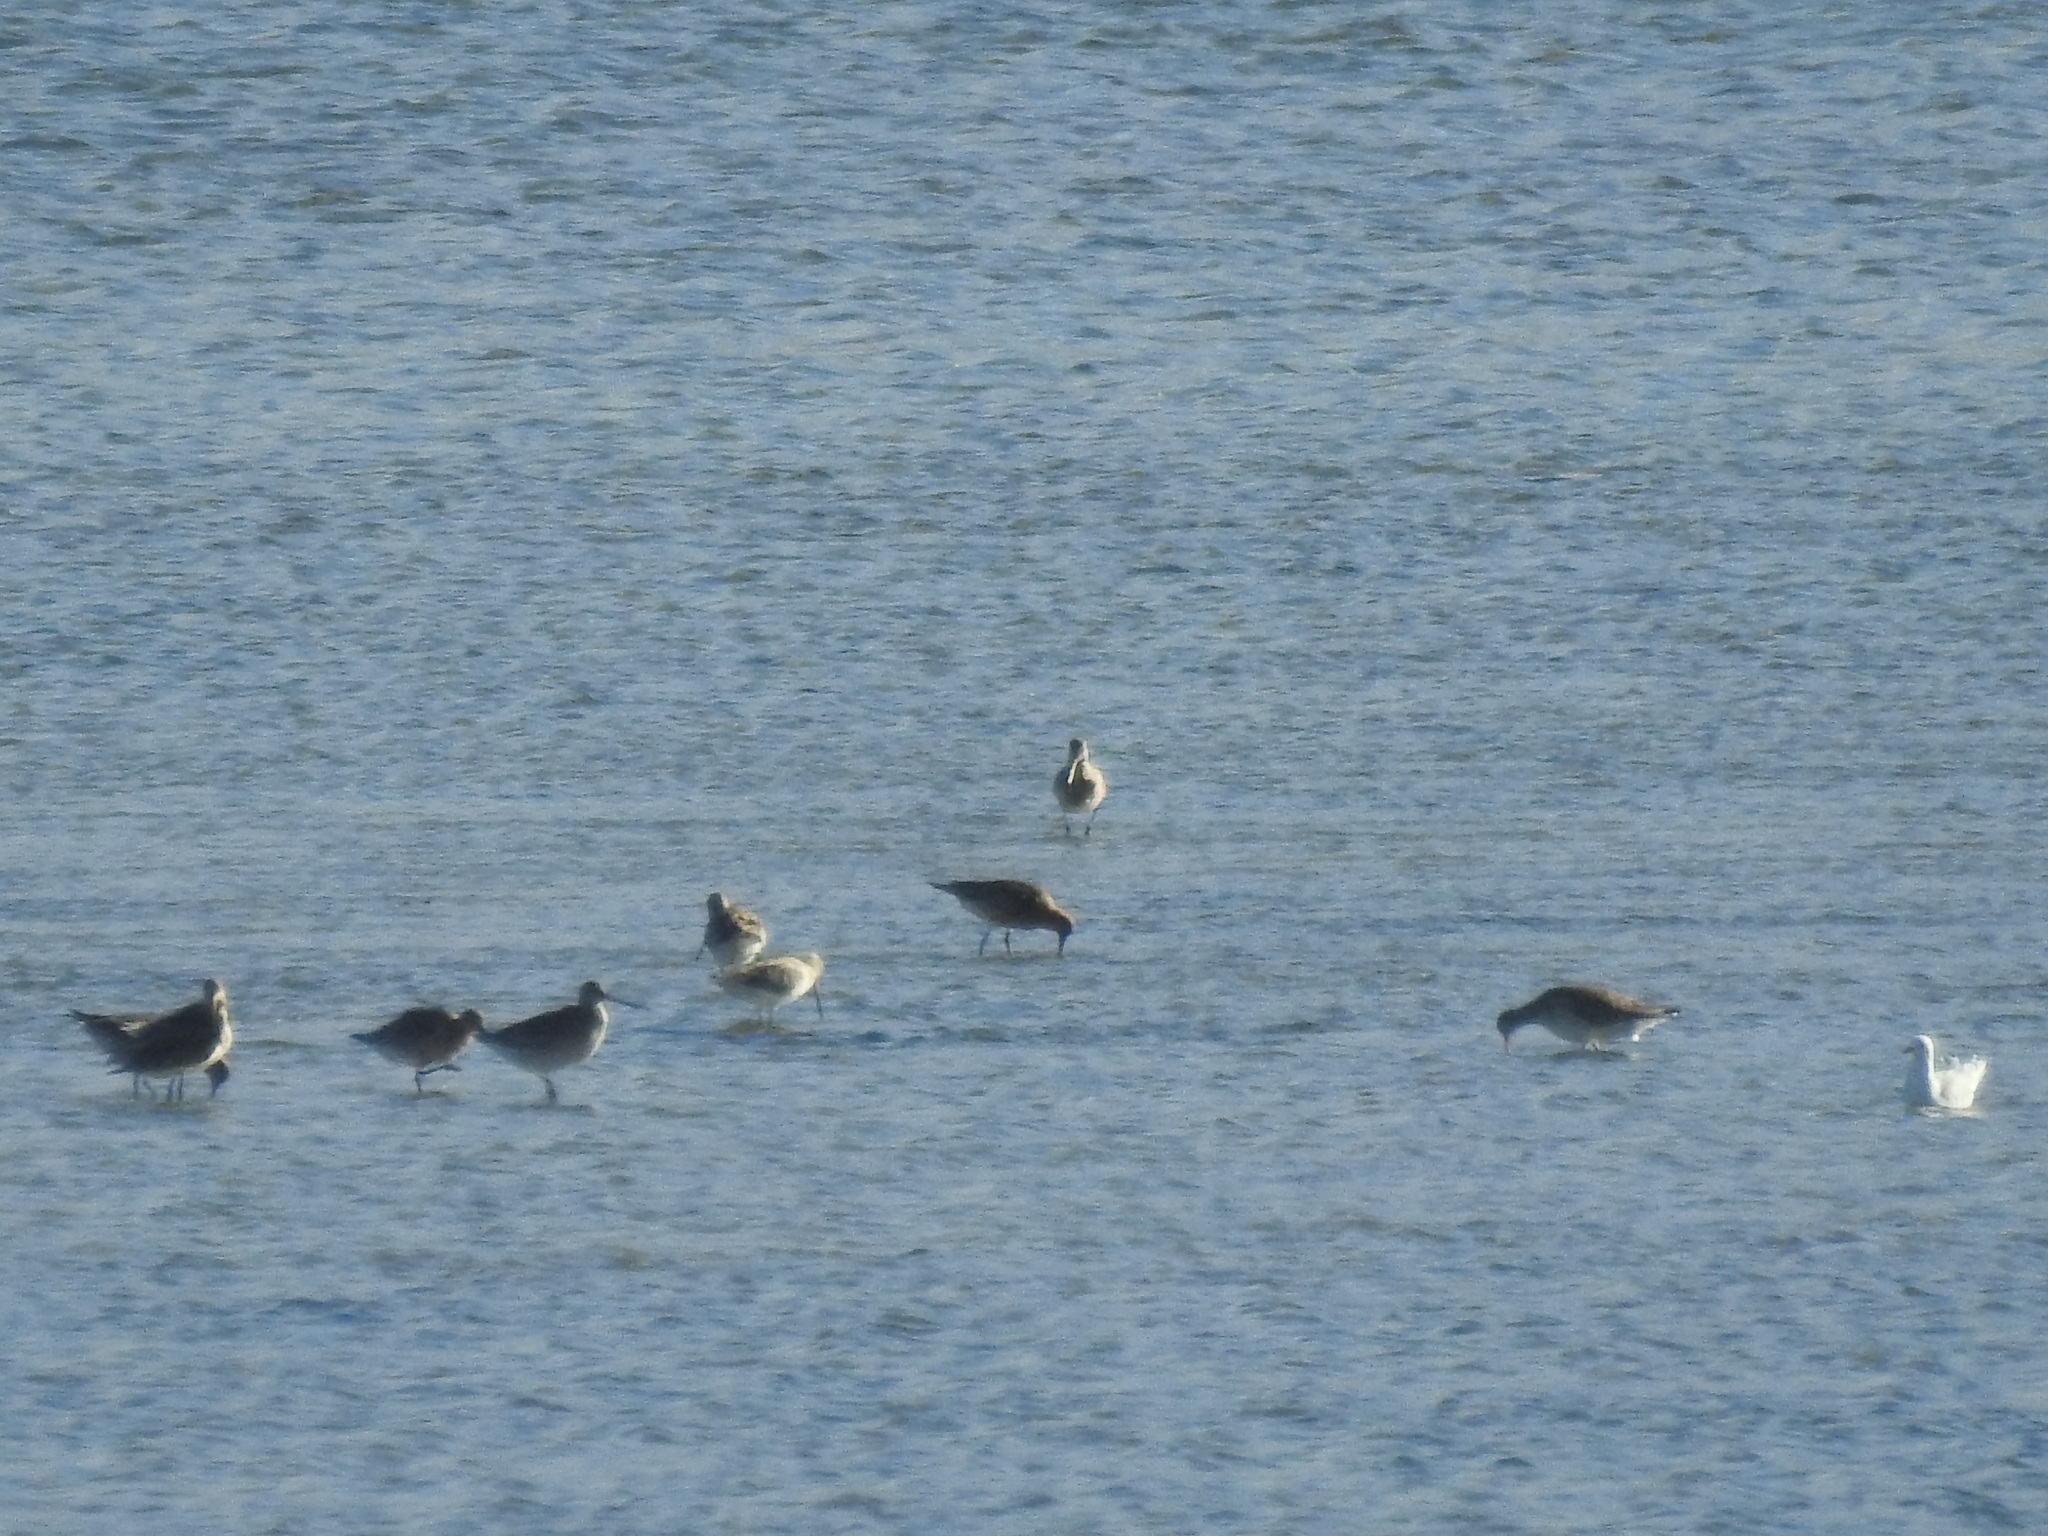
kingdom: Animalia
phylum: Chordata
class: Aves
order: Charadriiformes
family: Scolopacidae
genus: Limosa
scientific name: Limosa lapponica
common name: Bar-tailed godwit
